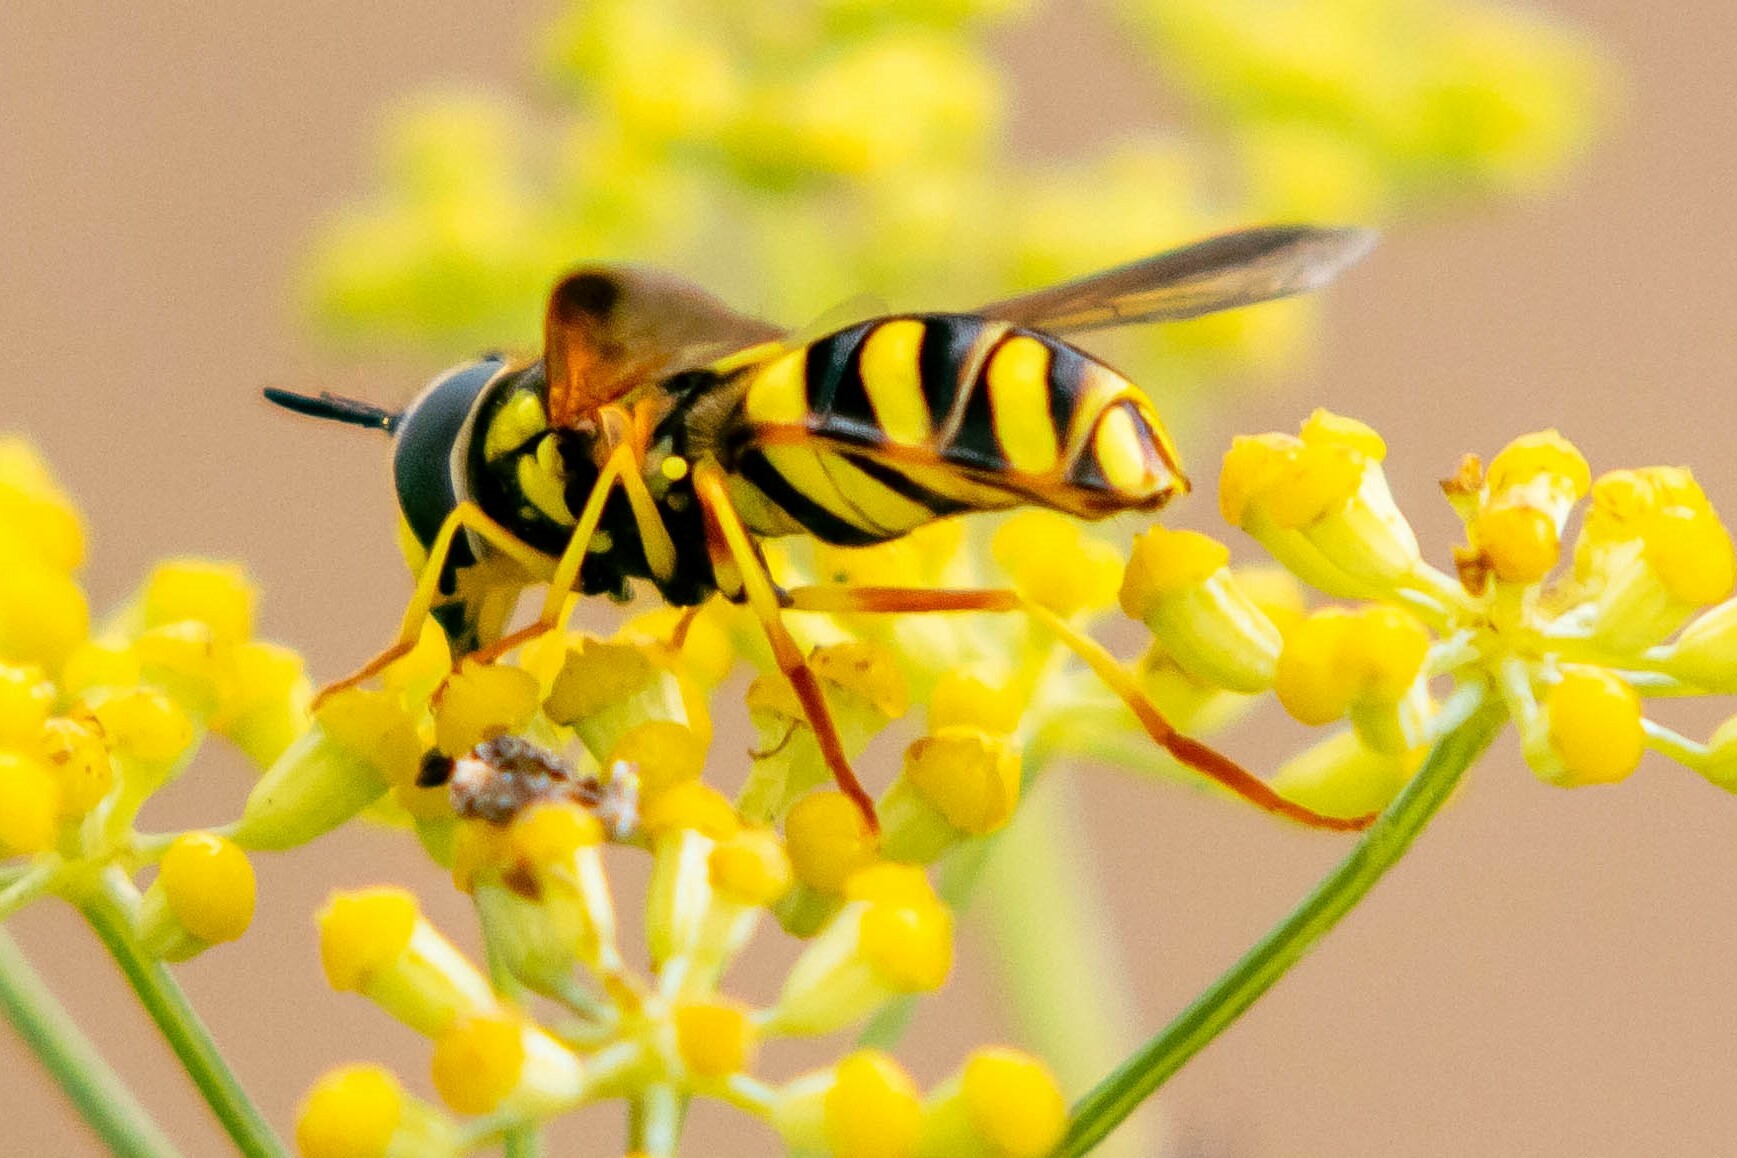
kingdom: Animalia
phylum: Arthropoda
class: Insecta
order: Diptera
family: Syrphidae
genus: Chrysotoxum
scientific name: Chrysotoxum intermedium
